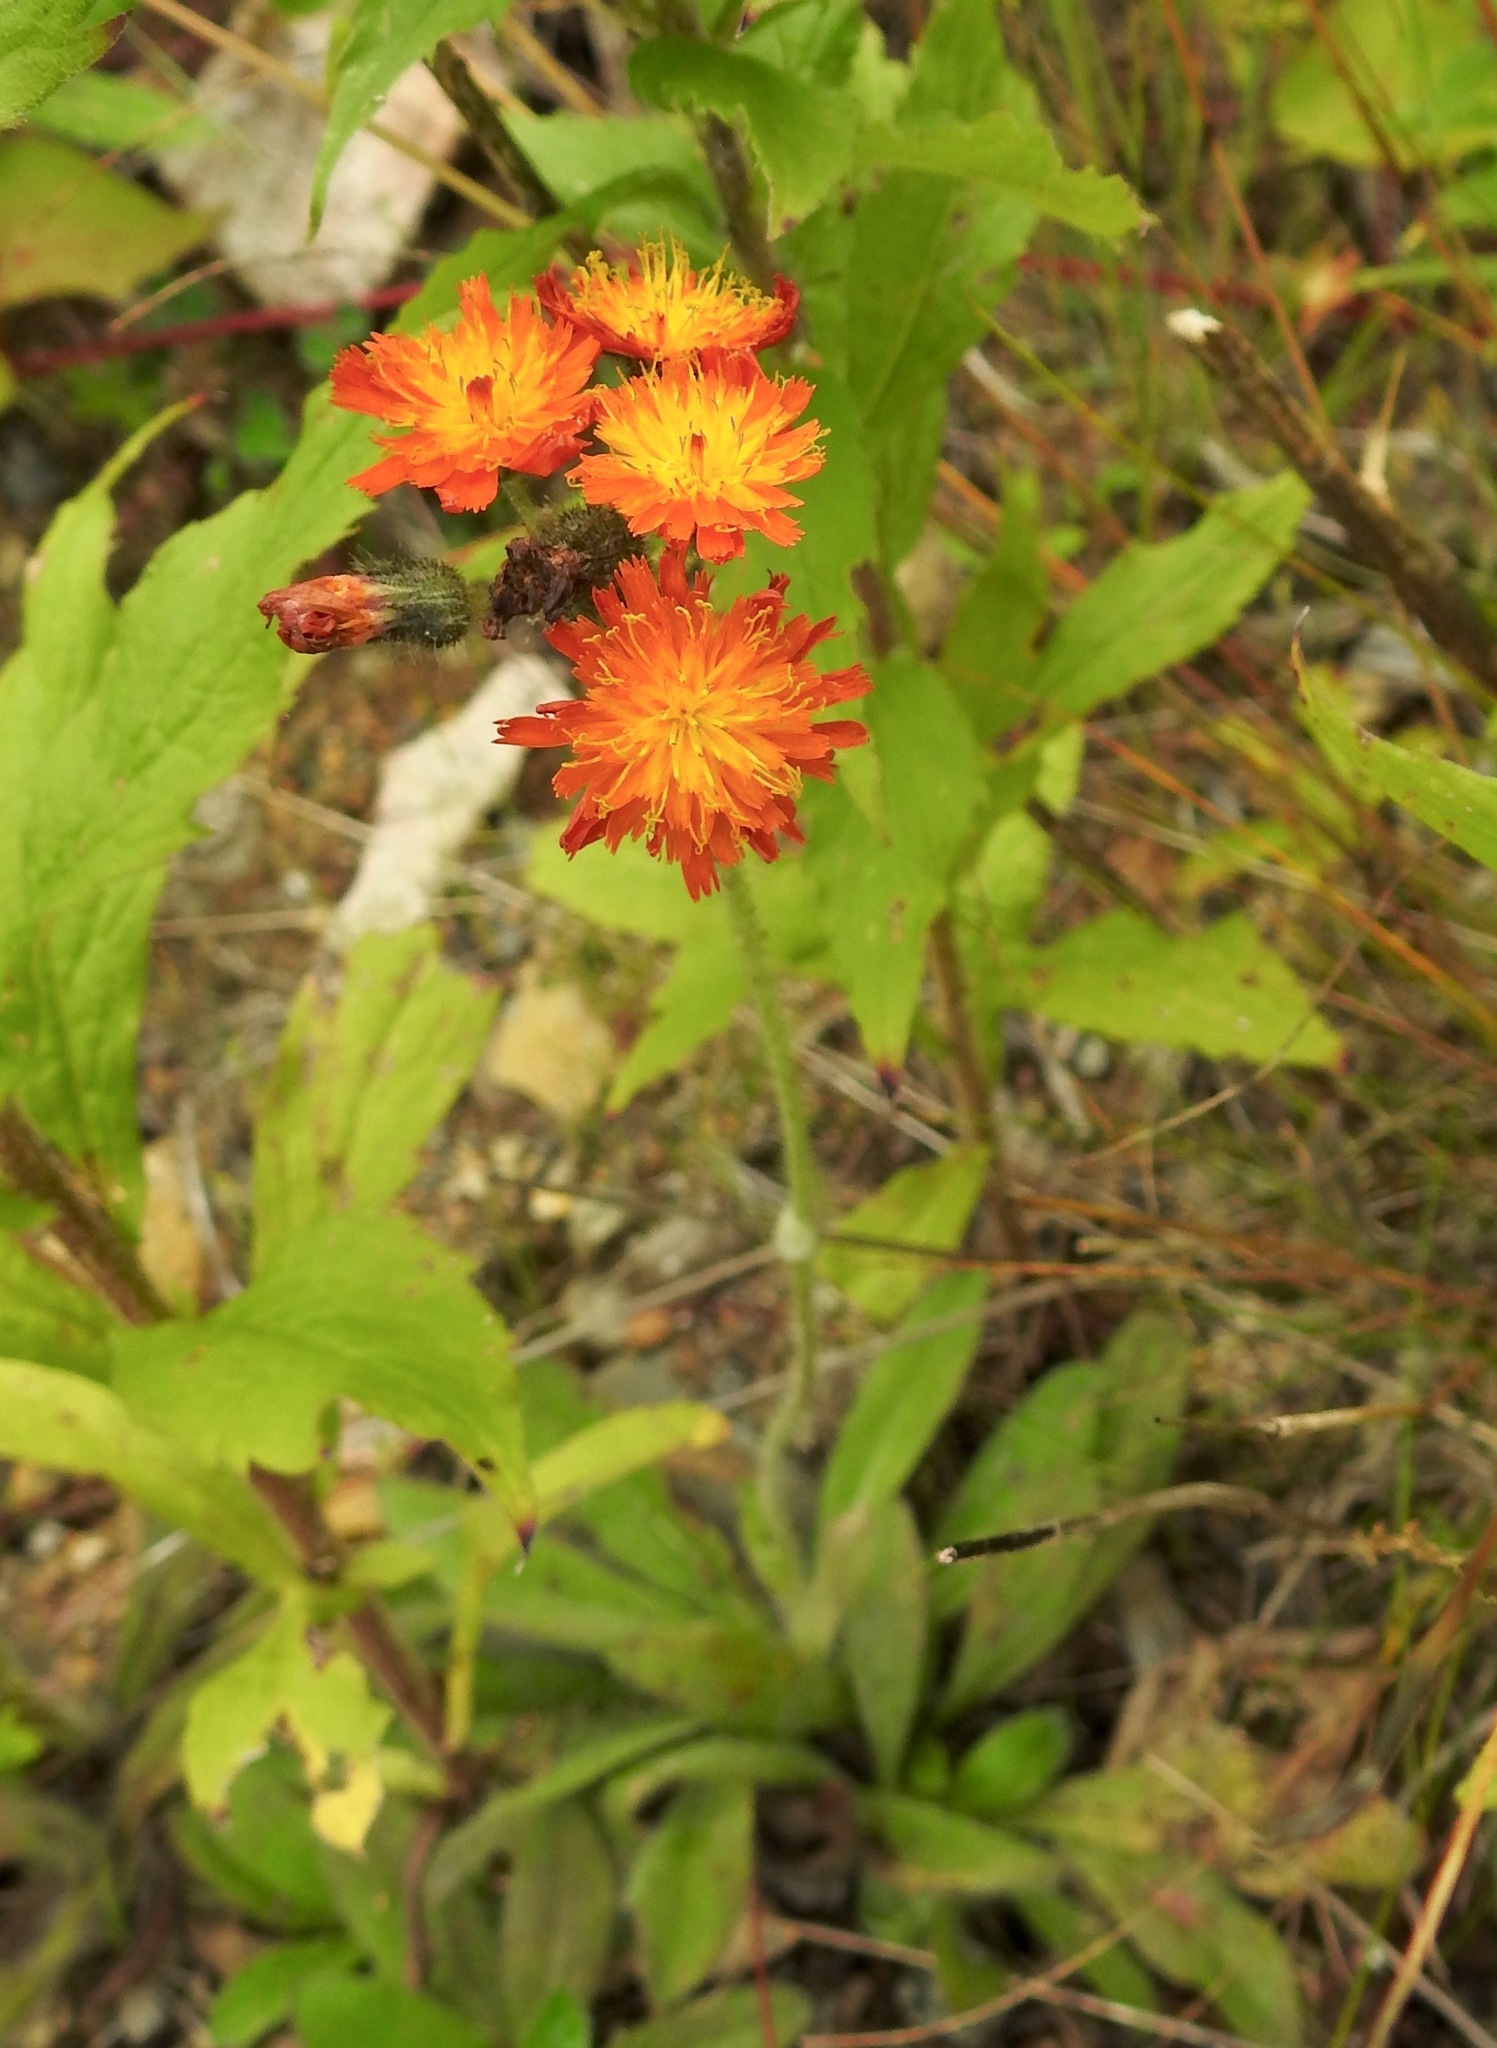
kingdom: Plantae
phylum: Tracheophyta
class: Magnoliopsida
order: Asterales
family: Asteraceae
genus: Pilosella
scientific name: Pilosella aurantiaca
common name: Fox-and-cubs
